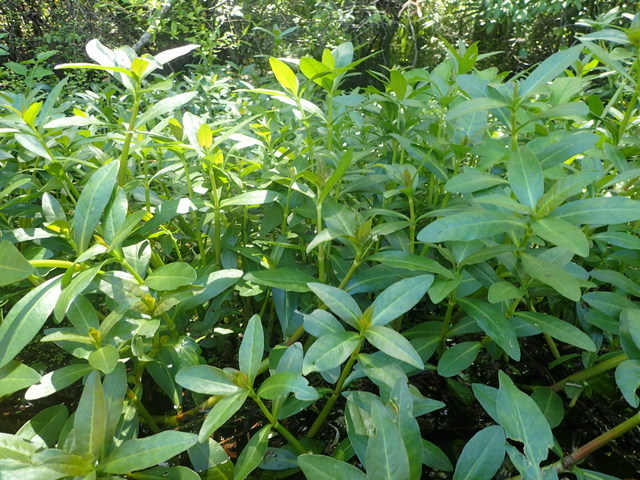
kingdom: Plantae
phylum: Tracheophyta
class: Magnoliopsida
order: Caryophyllales
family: Amaranthaceae
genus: Alternanthera
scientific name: Alternanthera philoxeroides
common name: Alligatorweed
